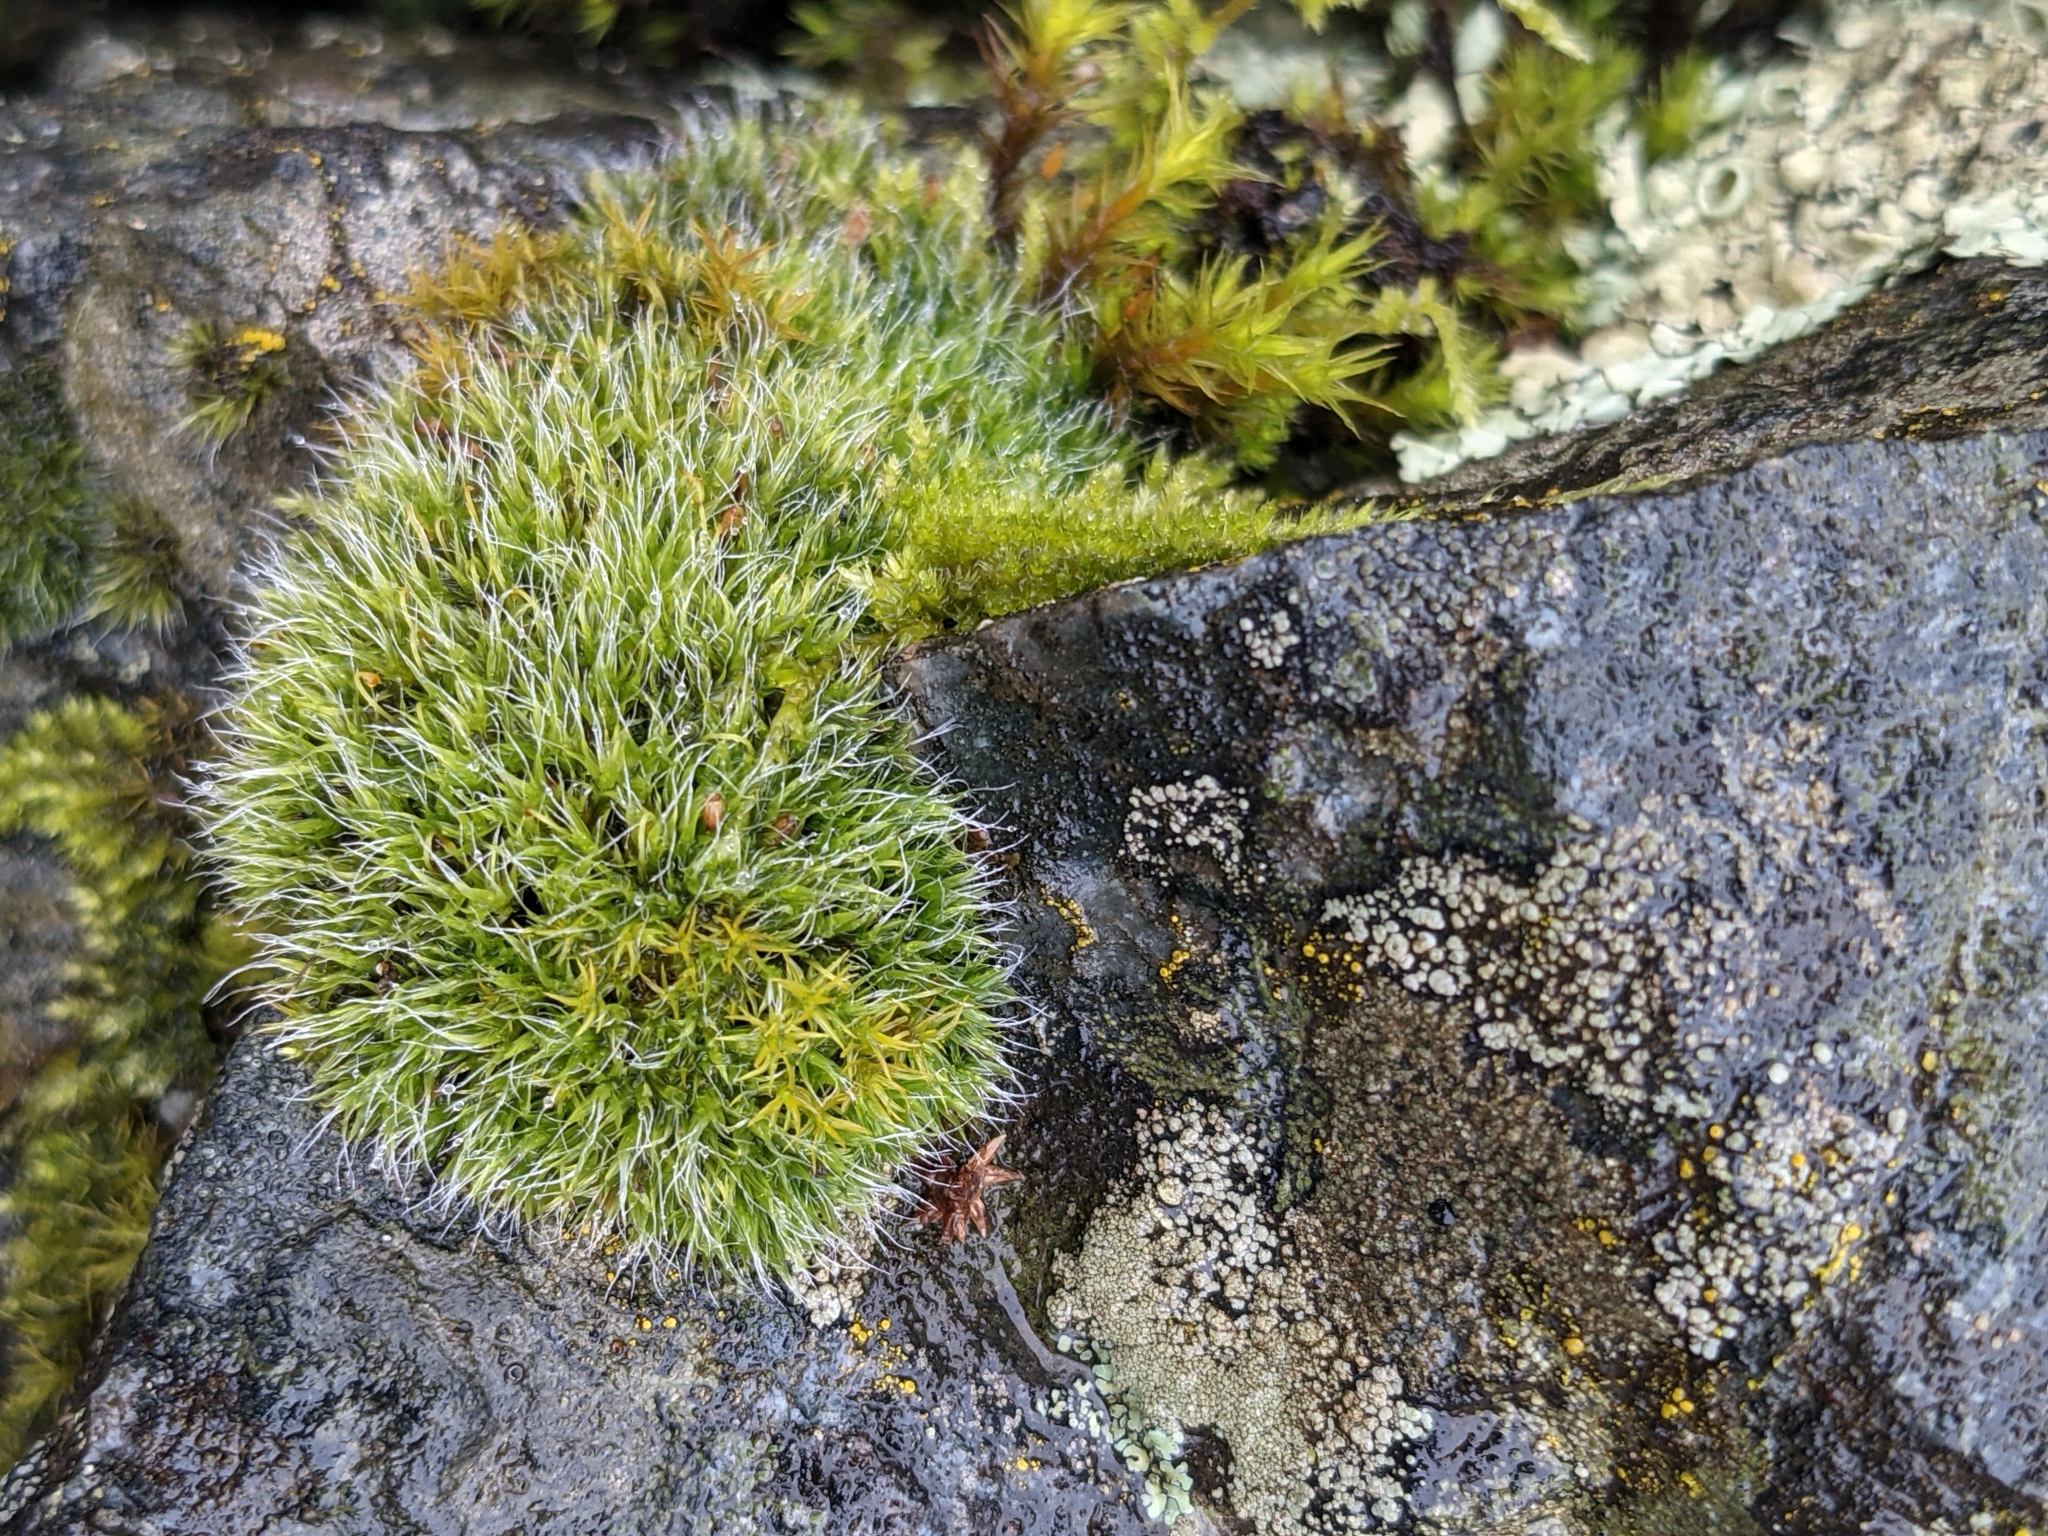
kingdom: Plantae
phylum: Bryophyta
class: Bryopsida
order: Grimmiales
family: Grimmiaceae
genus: Grimmia
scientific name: Grimmia pulvinata
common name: Grey-cushioned grimmia
